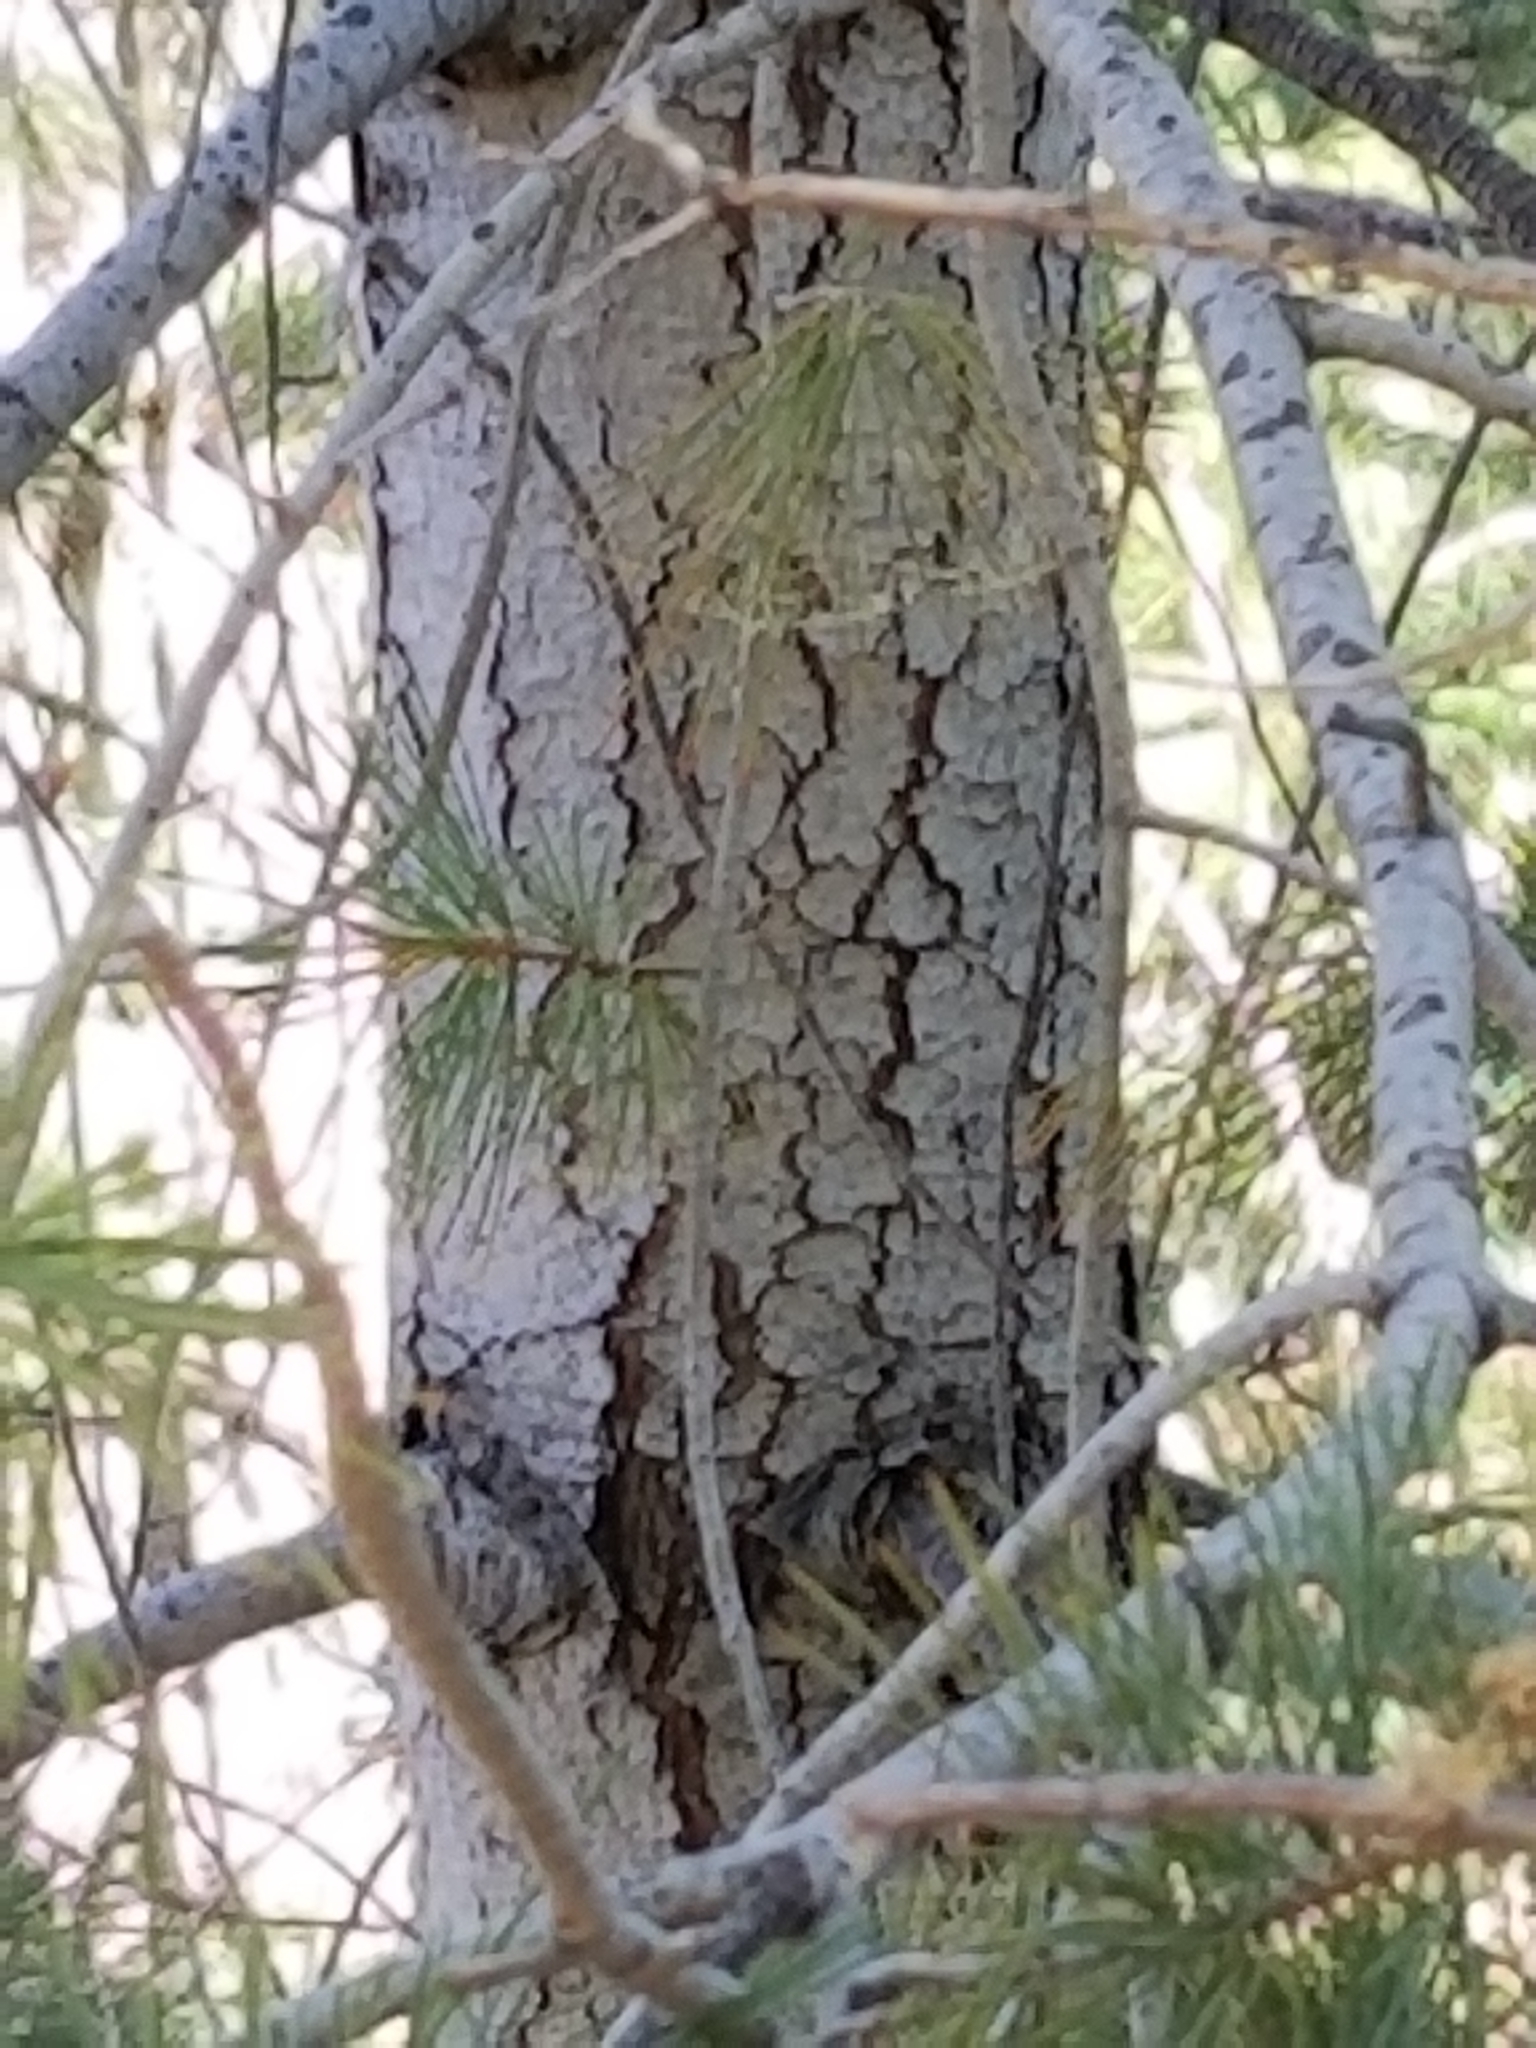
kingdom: Plantae
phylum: Tracheophyta
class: Pinopsida
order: Pinales
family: Pinaceae
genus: Pinus
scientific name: Pinus lambertiana
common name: Sugar pine
